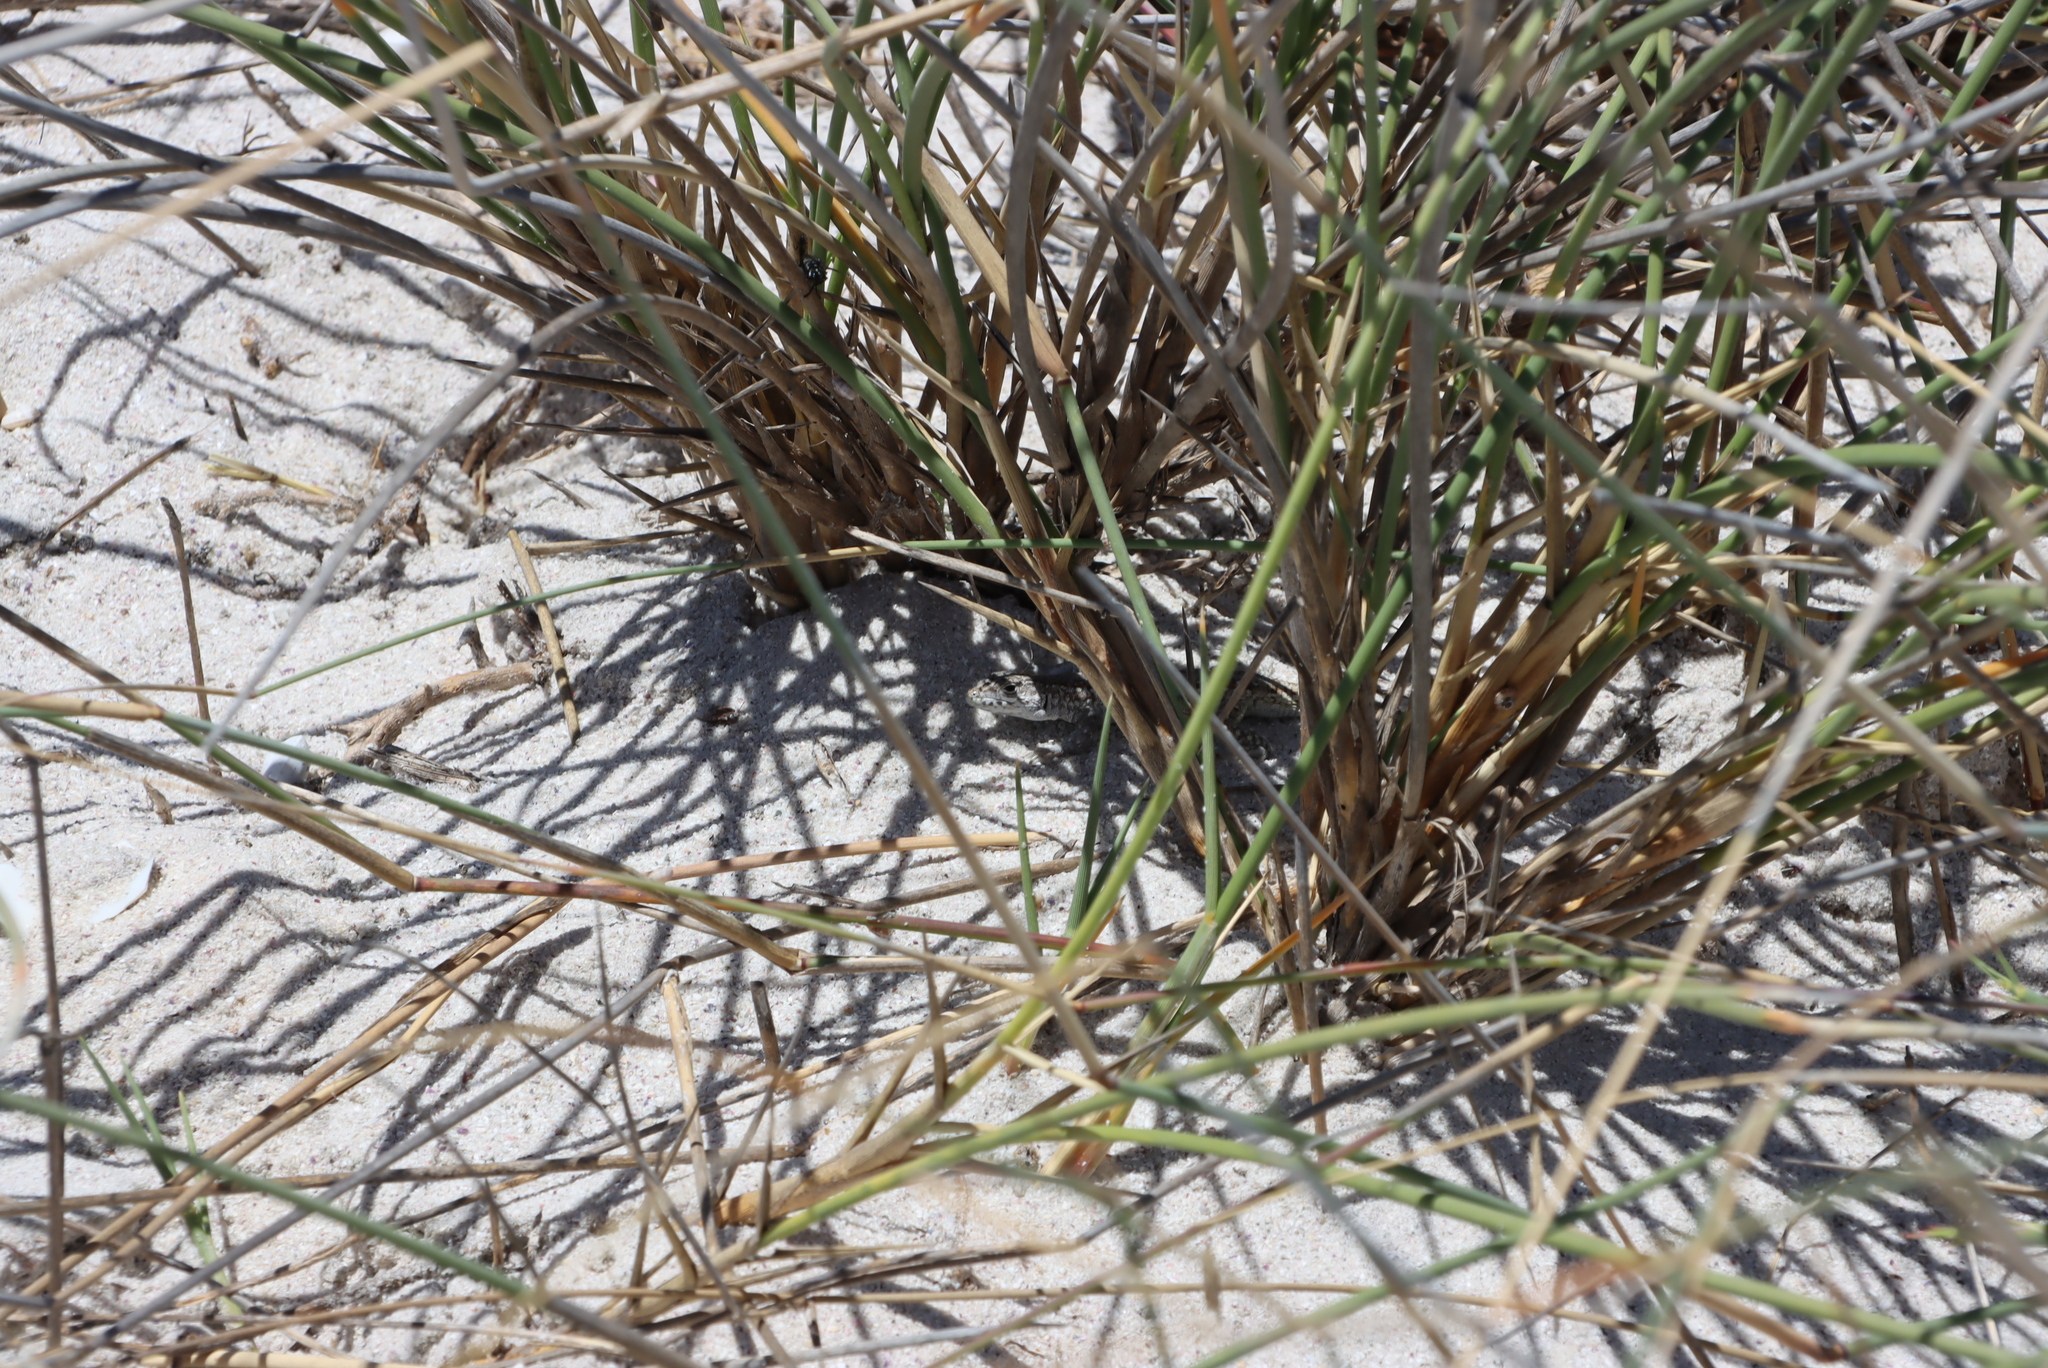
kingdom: Plantae
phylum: Tracheophyta
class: Liliopsida
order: Poales
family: Poaceae
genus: Cladoraphis
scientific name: Cladoraphis cyperoides
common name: Bristly lovegrass
